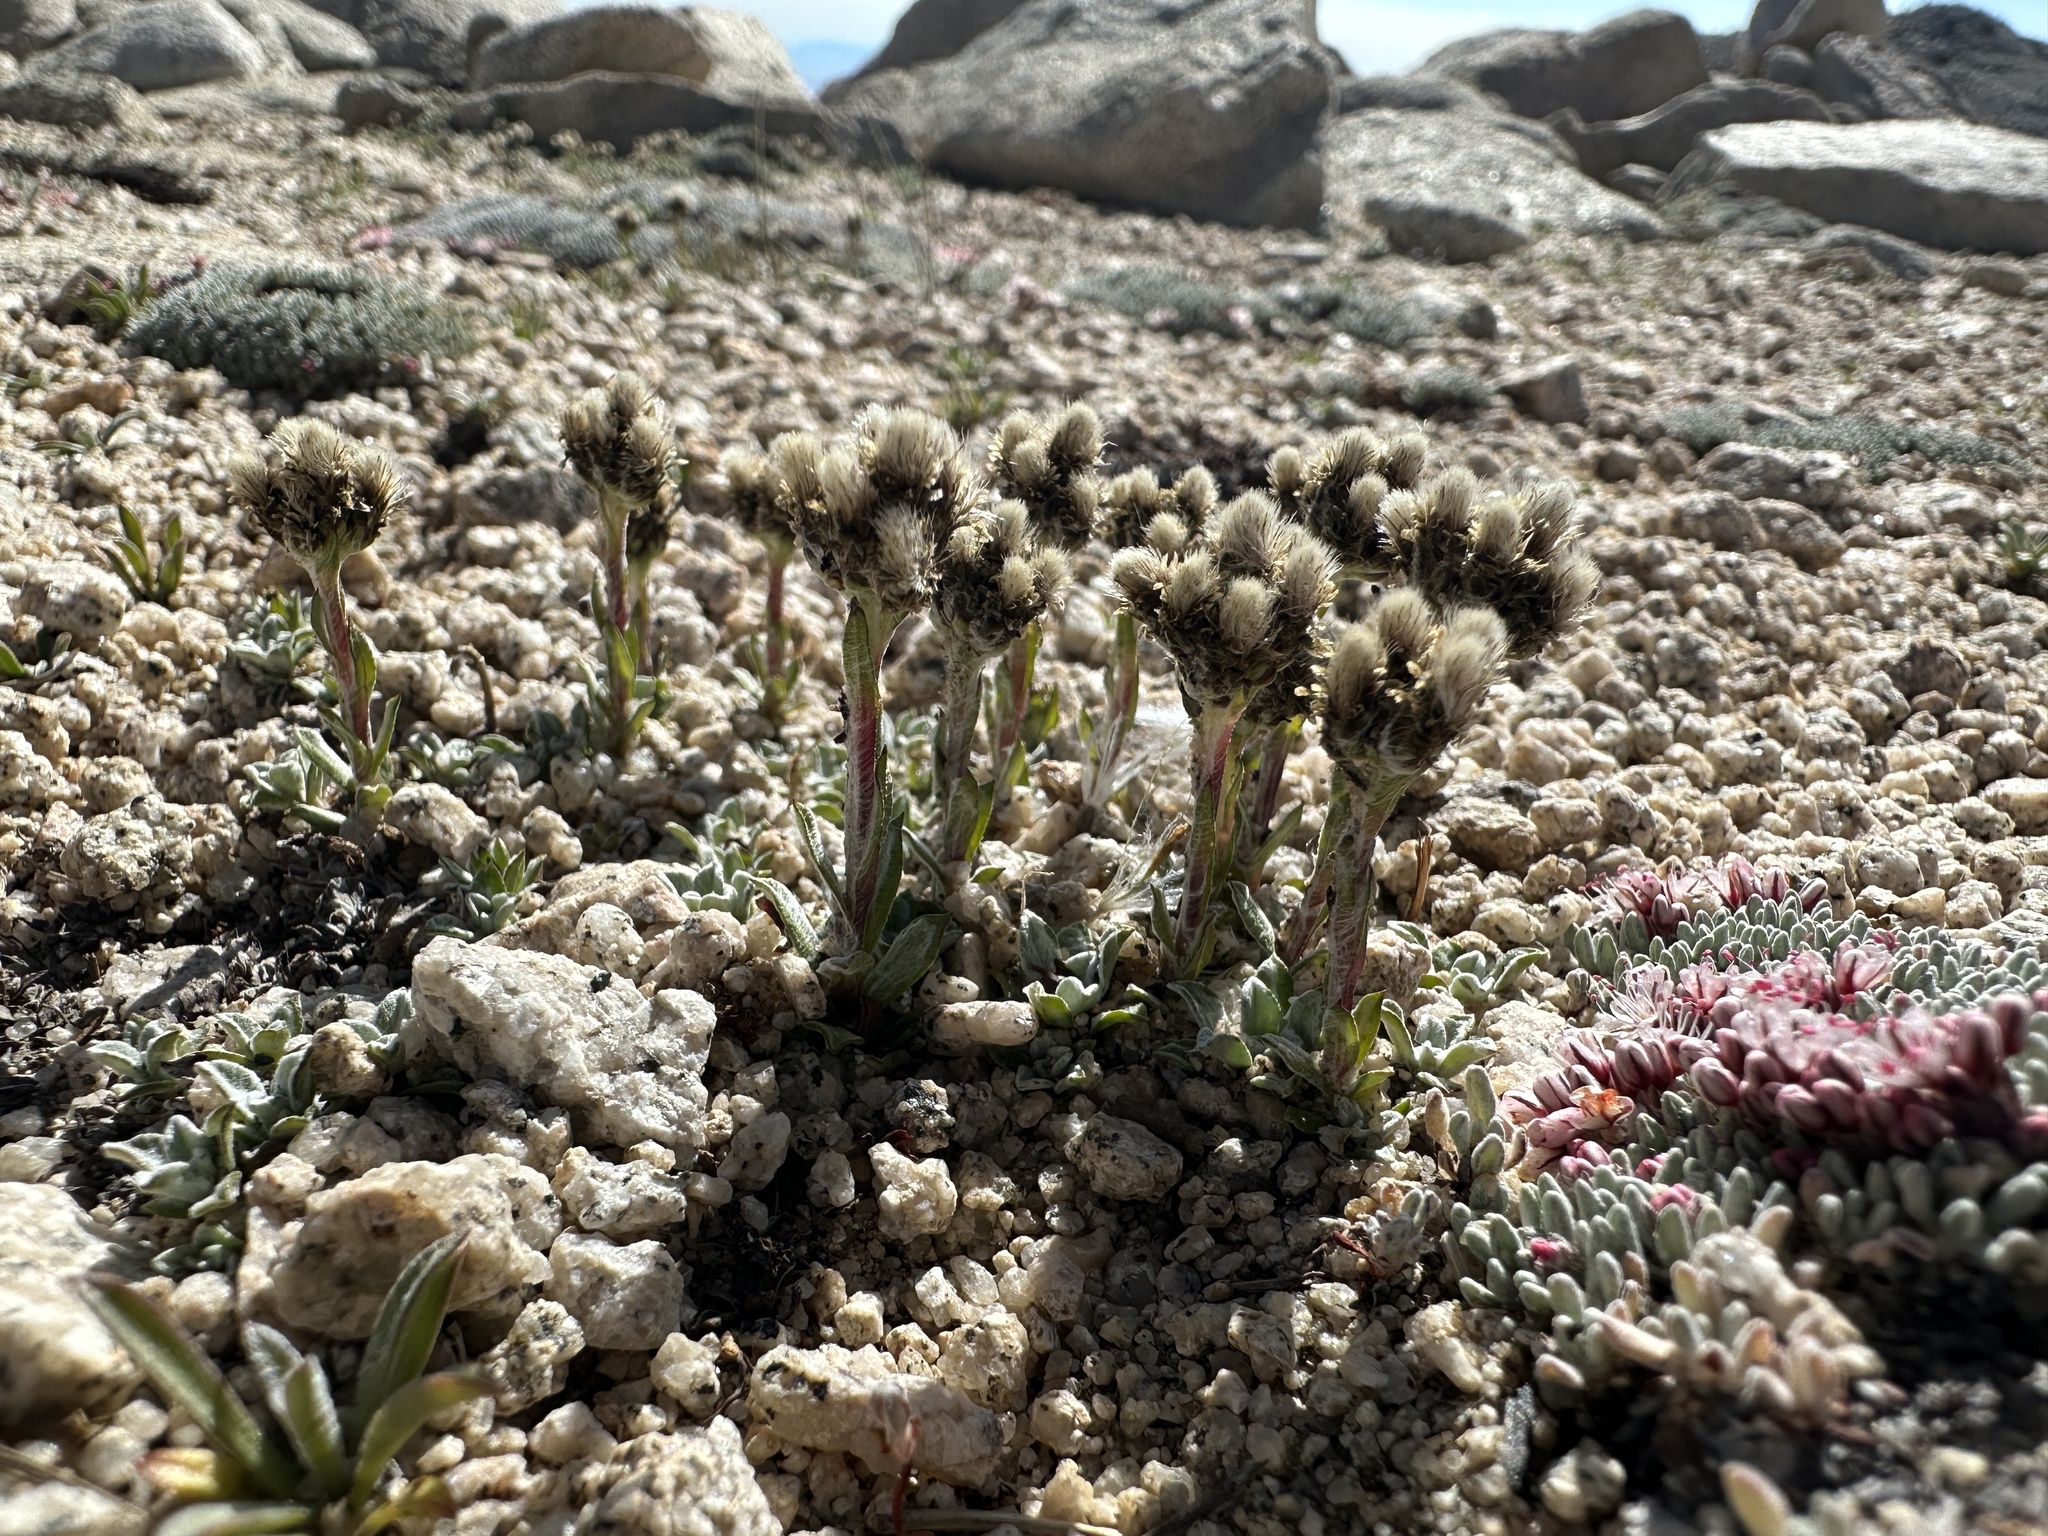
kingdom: Plantae
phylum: Tracheophyta
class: Magnoliopsida
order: Asterales
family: Asteraceae
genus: Antennaria
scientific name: Antennaria media
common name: Rocky mountain pussytoes
